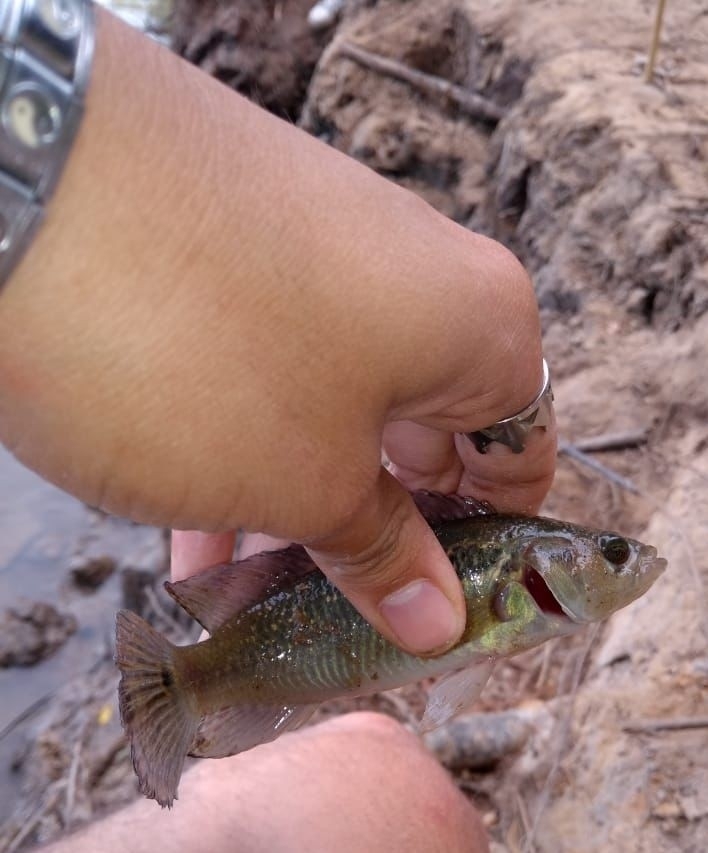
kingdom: Animalia
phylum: Chordata
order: Perciformes
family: Cichlidae
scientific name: Cichlidae
